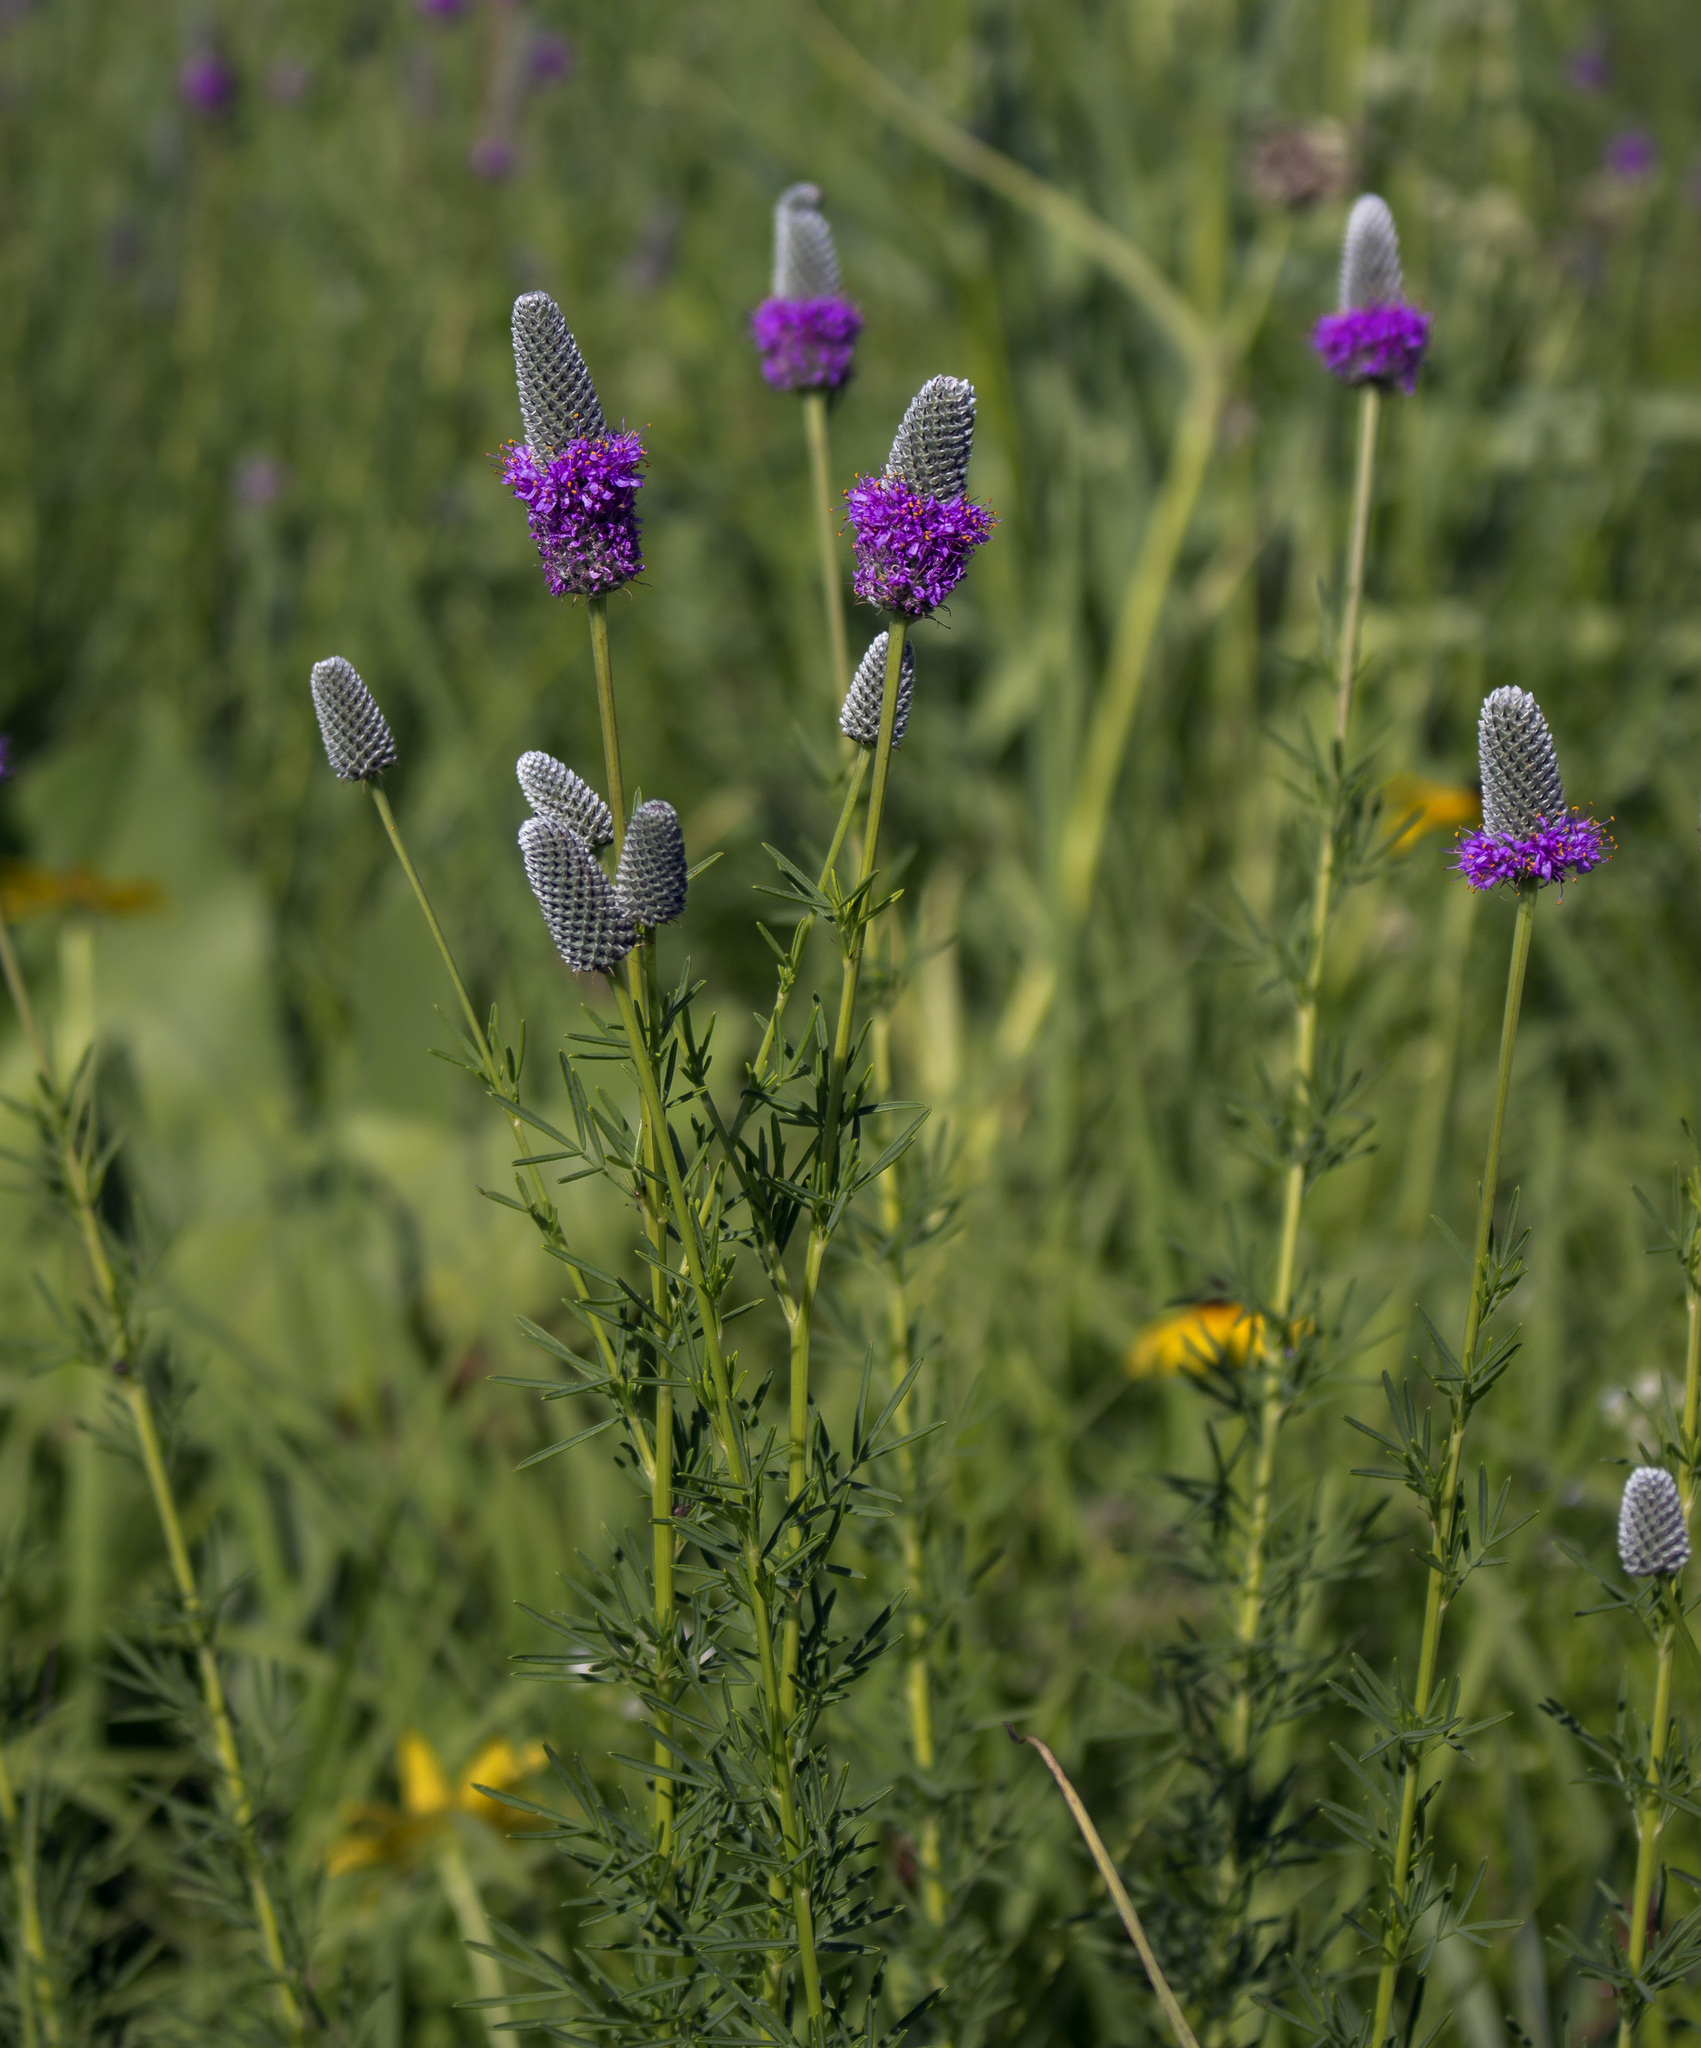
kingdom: Plantae
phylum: Tracheophyta
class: Magnoliopsida
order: Fabales
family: Fabaceae
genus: Dalea
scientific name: Dalea purpurea
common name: Purple prairie-clover
